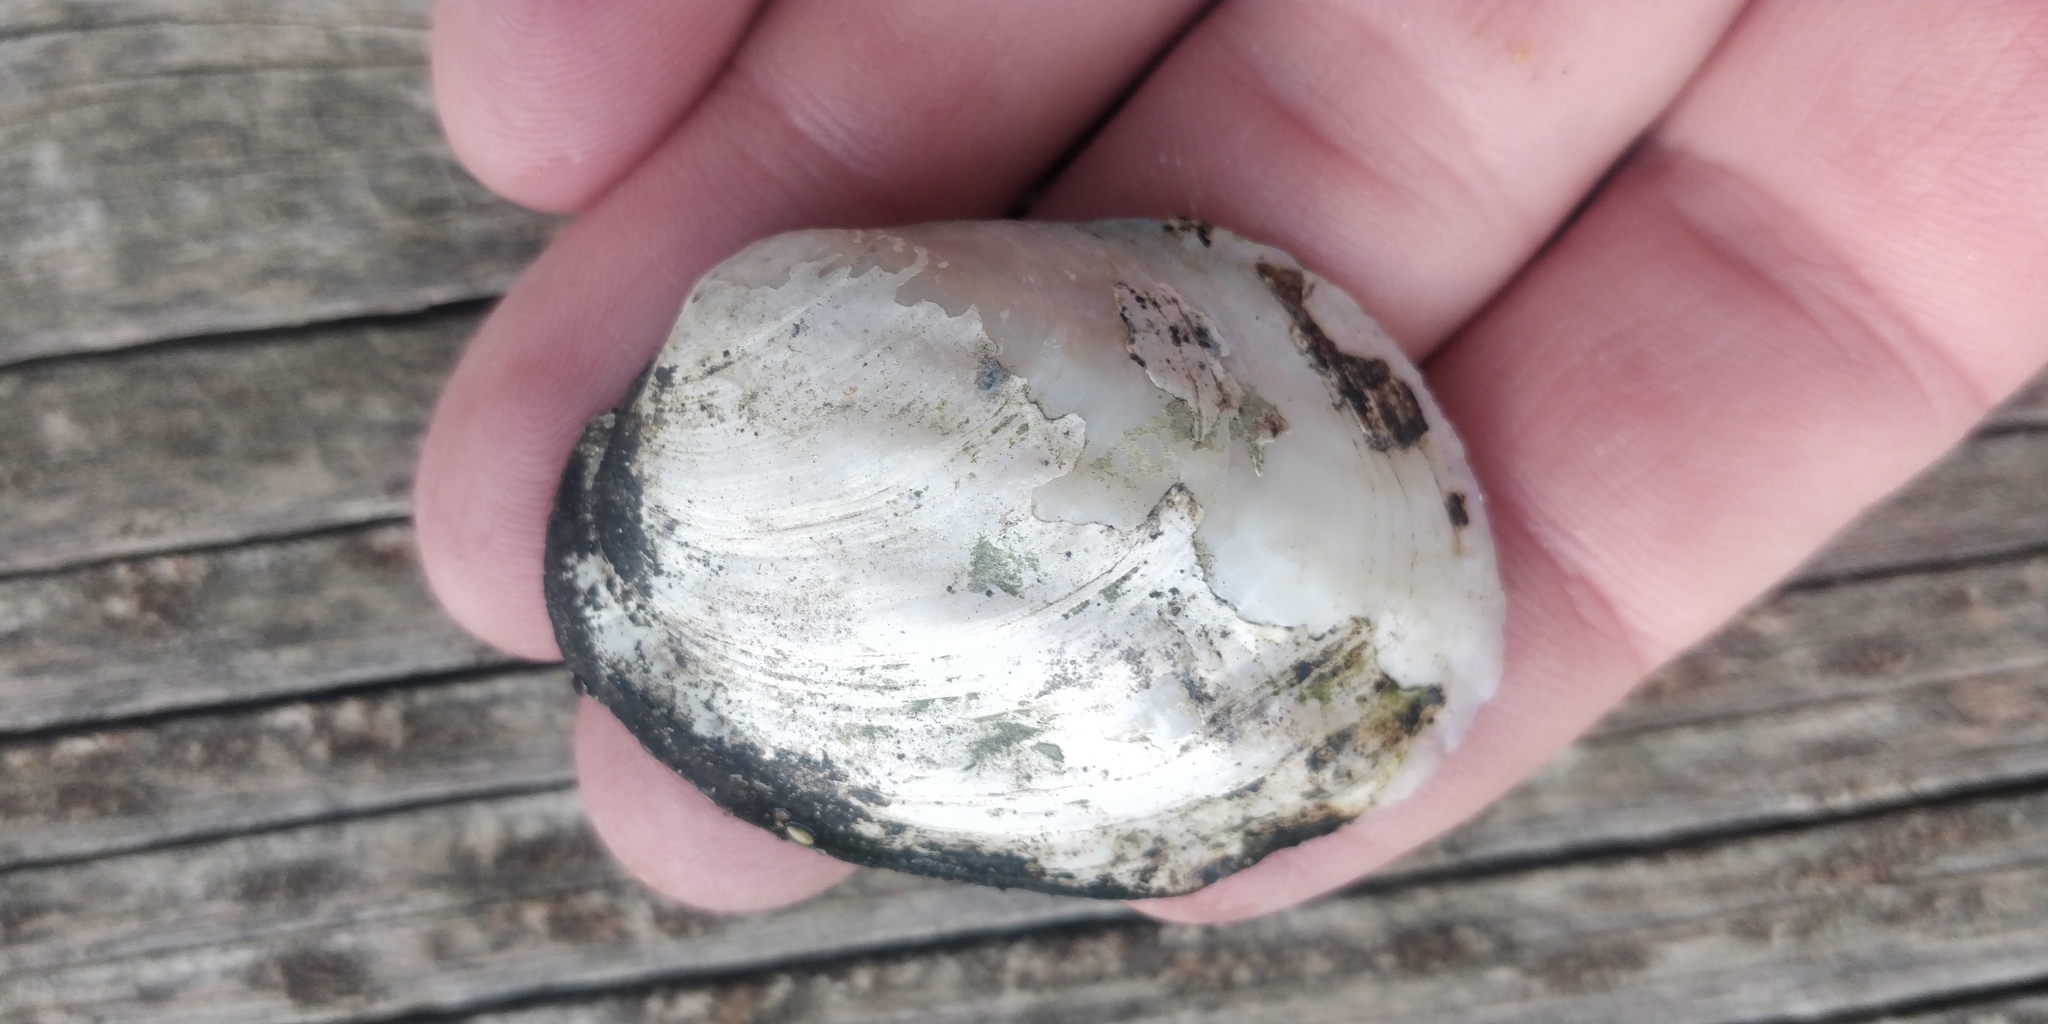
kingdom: Animalia
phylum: Mollusca
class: Bivalvia
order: Unionida
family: Unionidae
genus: Amblema
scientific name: Amblema plicata
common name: Threeridge
